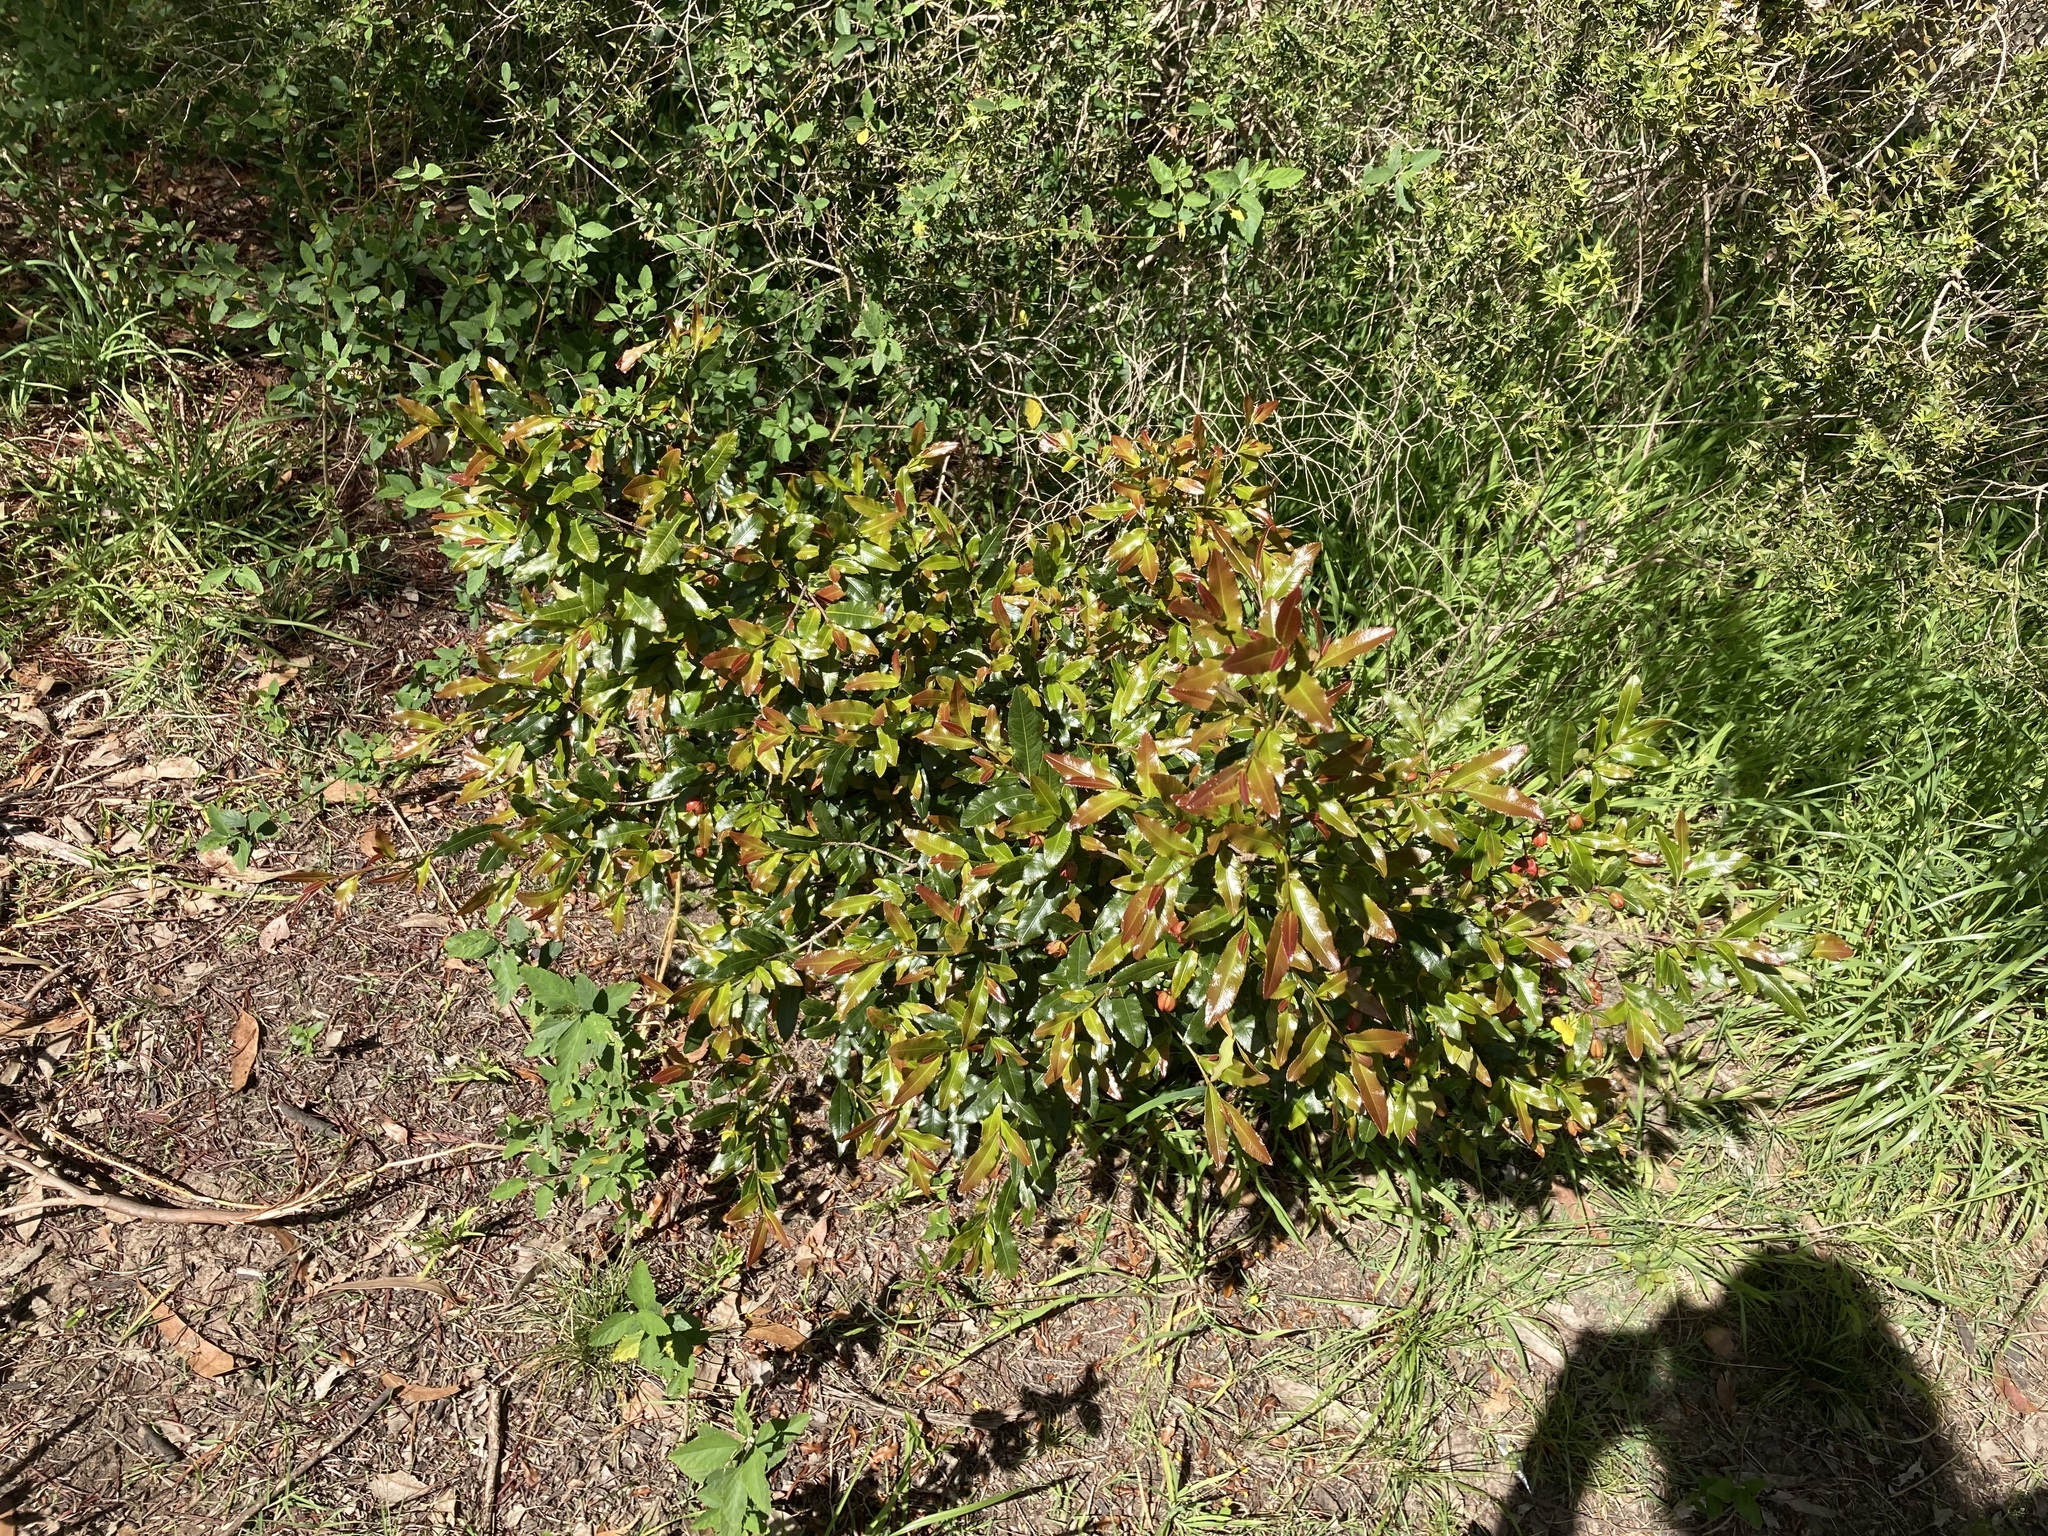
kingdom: Plantae
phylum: Tracheophyta
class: Magnoliopsida
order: Malpighiales
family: Ochnaceae
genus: Ochna
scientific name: Ochna serrulata
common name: Mickey mouse plant
